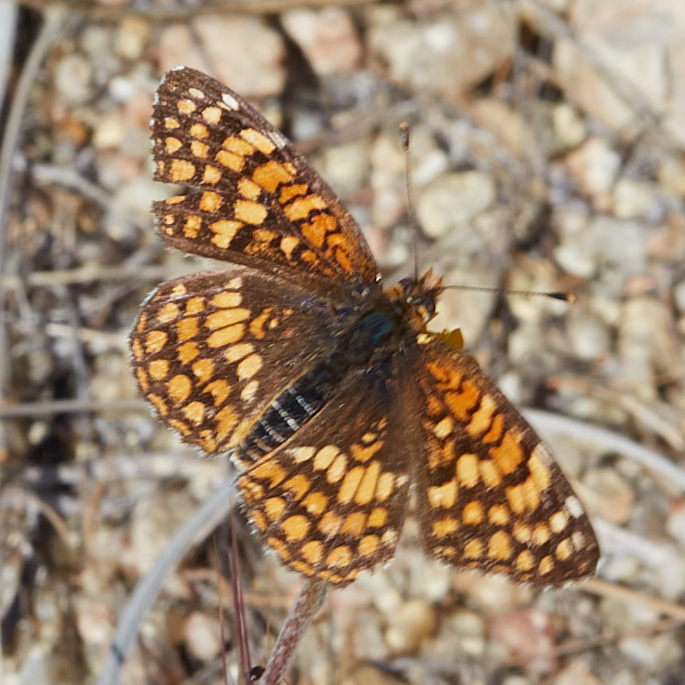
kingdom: Animalia
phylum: Arthropoda
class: Insecta
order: Lepidoptera
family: Nymphalidae
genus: Chlosyne
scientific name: Chlosyne gabbii
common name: Gabb's checkerspot
